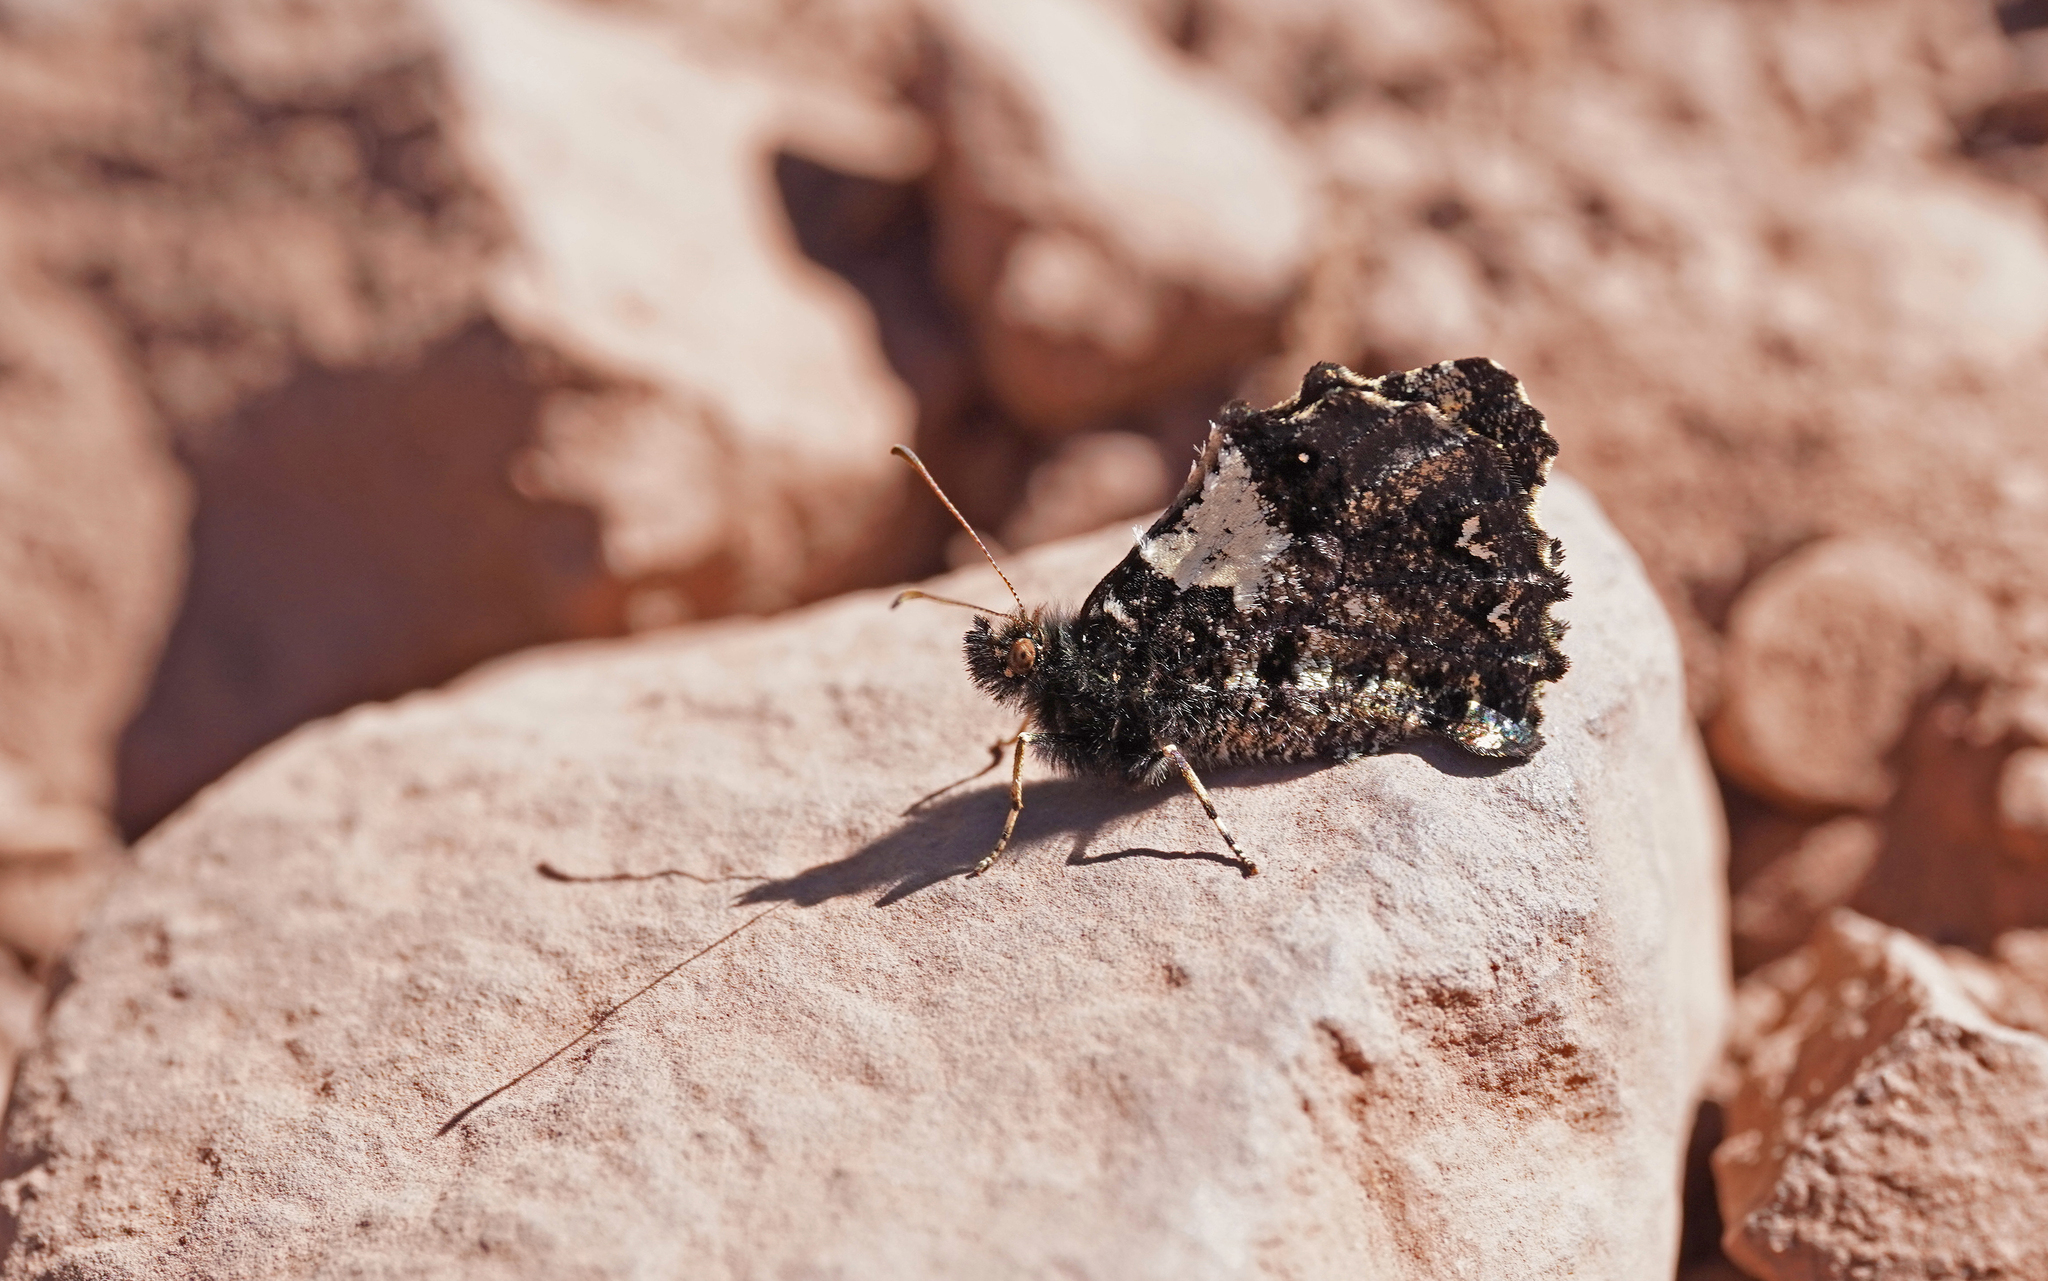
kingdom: Animalia
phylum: Arthropoda
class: Insecta
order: Lepidoptera
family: Nymphalidae
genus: Steroma
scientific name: Steroma bega
